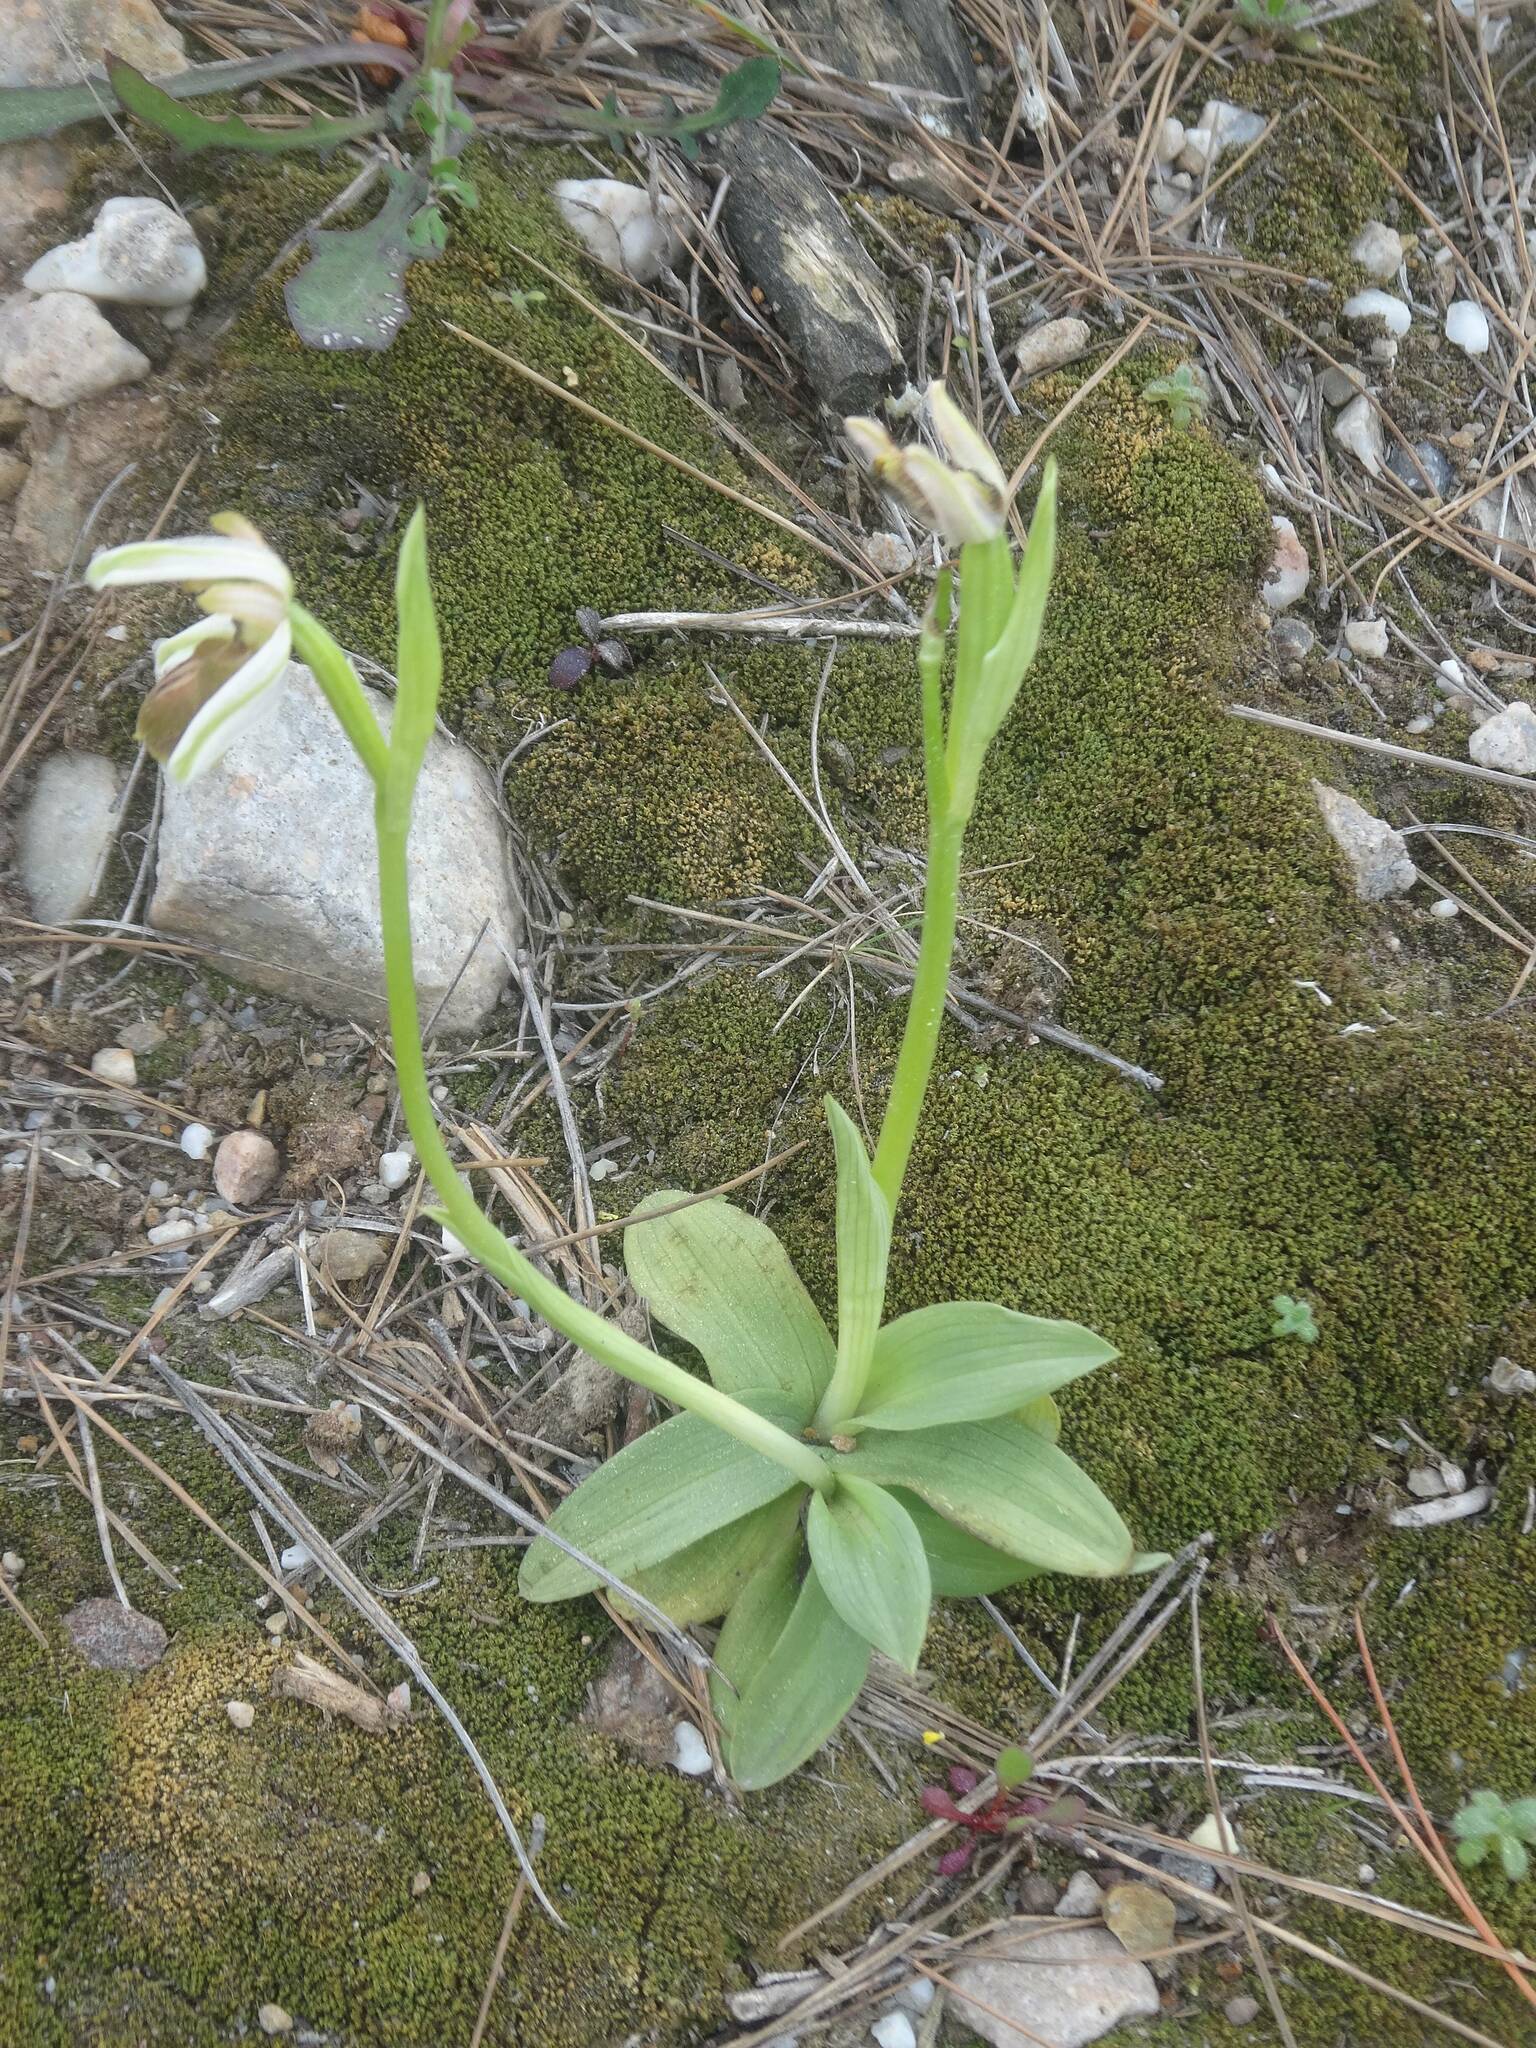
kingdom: Plantae
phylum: Tracheophyta
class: Liliopsida
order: Asparagales
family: Orchidaceae
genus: Ophrys
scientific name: Ophrys sphegodes
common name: Early spider-orchid
